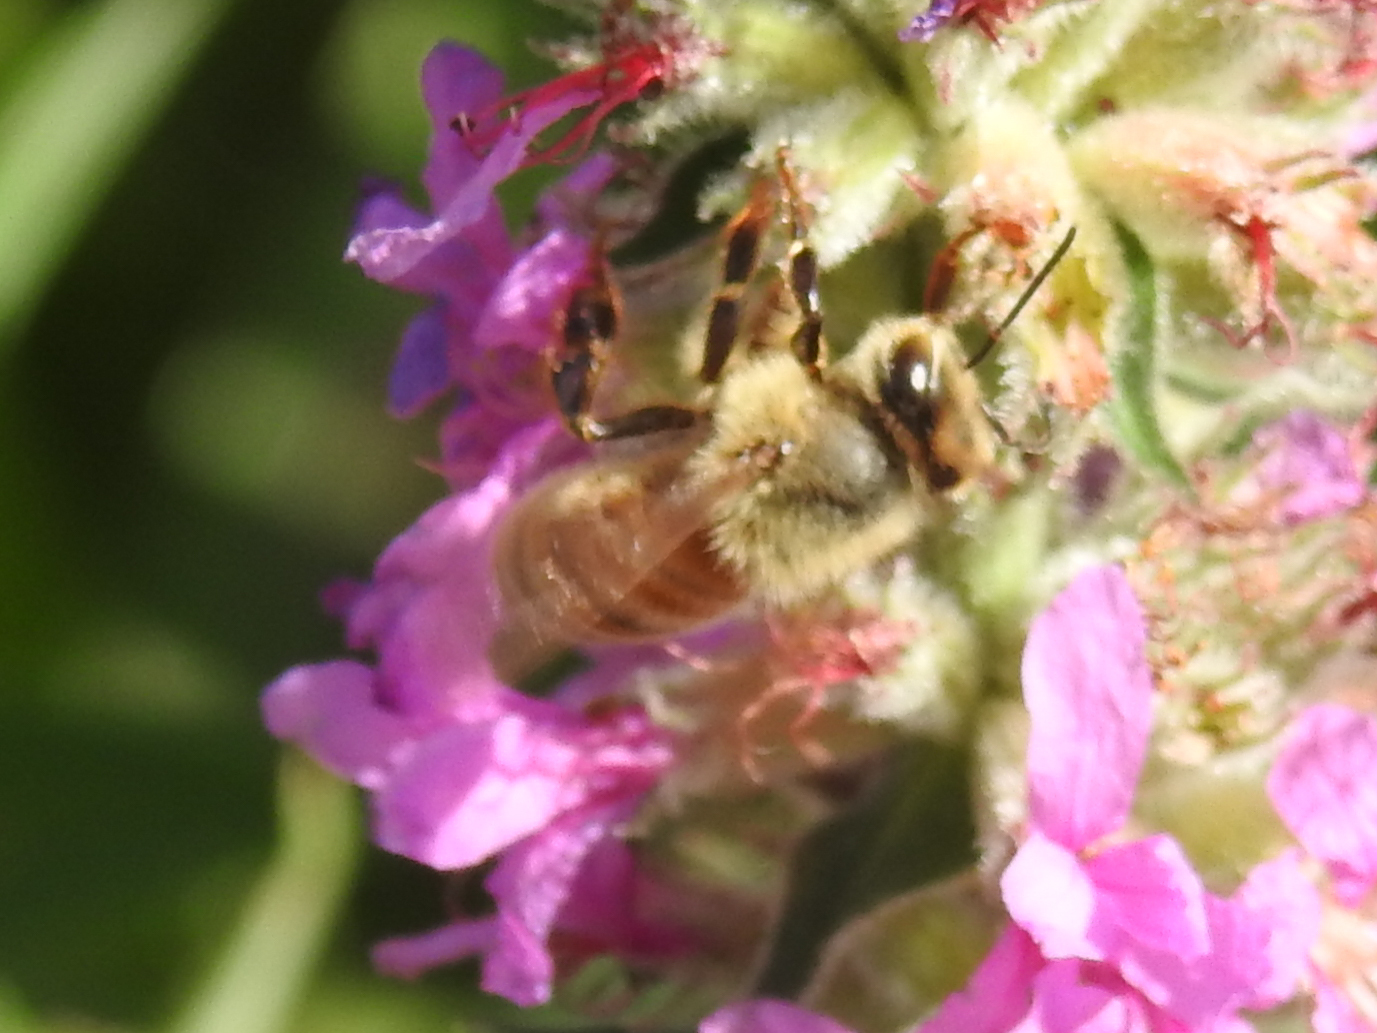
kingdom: Animalia
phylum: Arthropoda
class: Insecta
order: Hymenoptera
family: Apidae
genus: Apis
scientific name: Apis mellifera
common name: Honey bee
